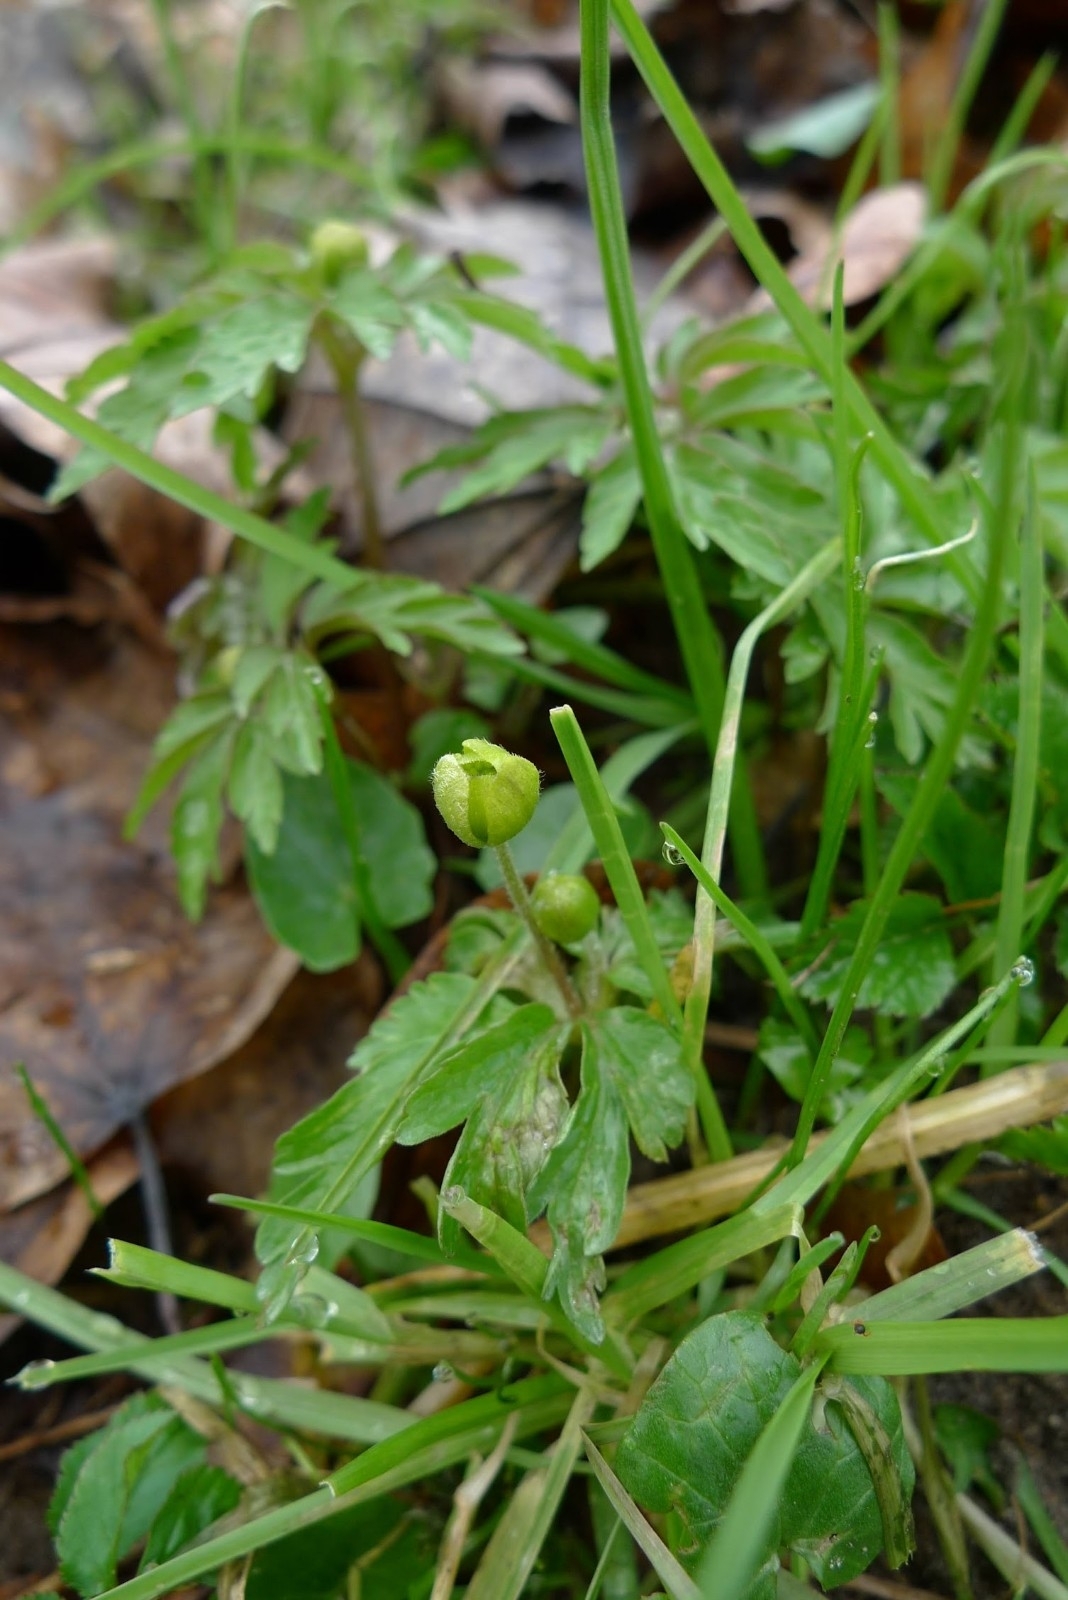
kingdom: Plantae
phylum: Tracheophyta
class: Magnoliopsida
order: Ranunculales
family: Ranunculaceae
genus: Anemone
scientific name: Anemone ranunculoides
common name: Yellow anemone
